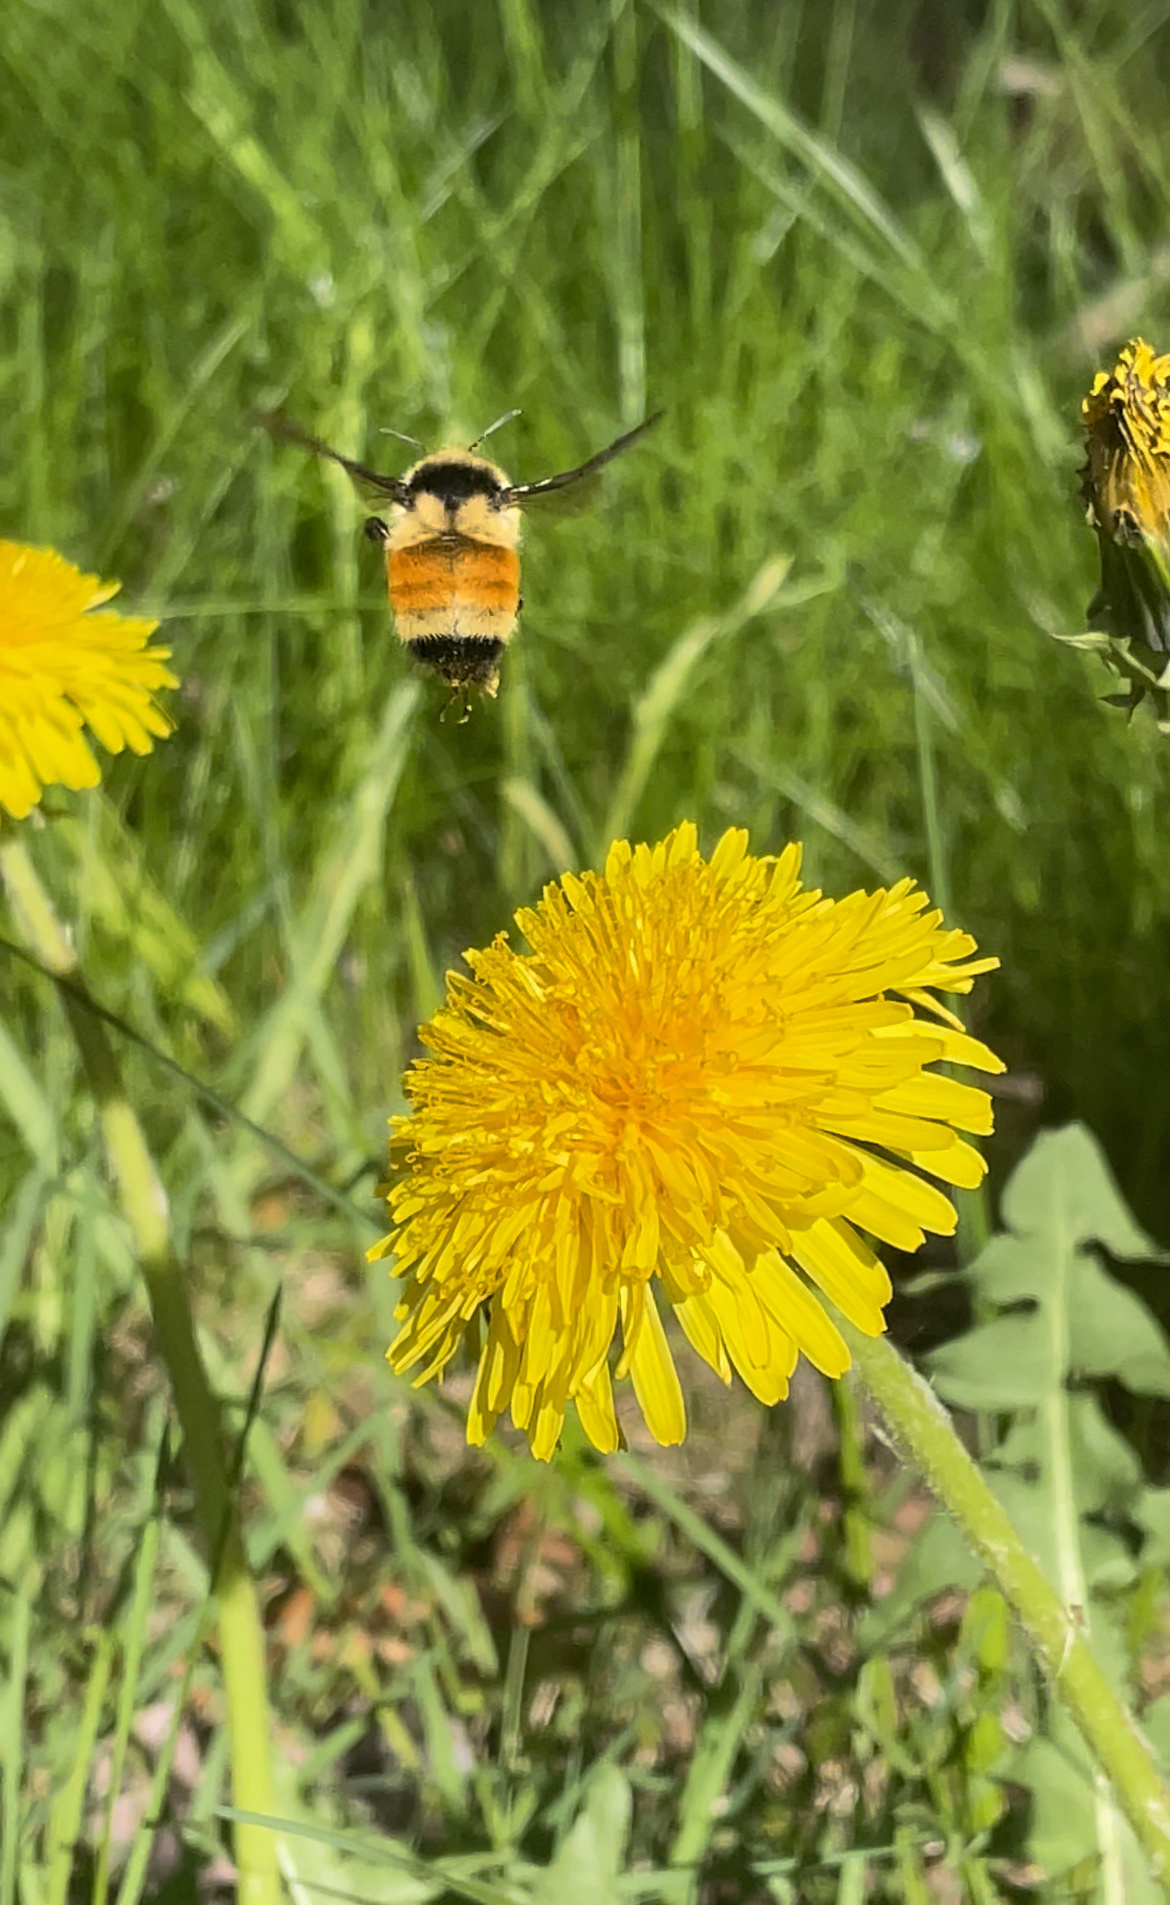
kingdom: Animalia
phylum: Arthropoda
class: Insecta
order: Hymenoptera
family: Apidae
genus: Bombus
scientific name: Bombus ternarius
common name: Tri-colored bumble bee
